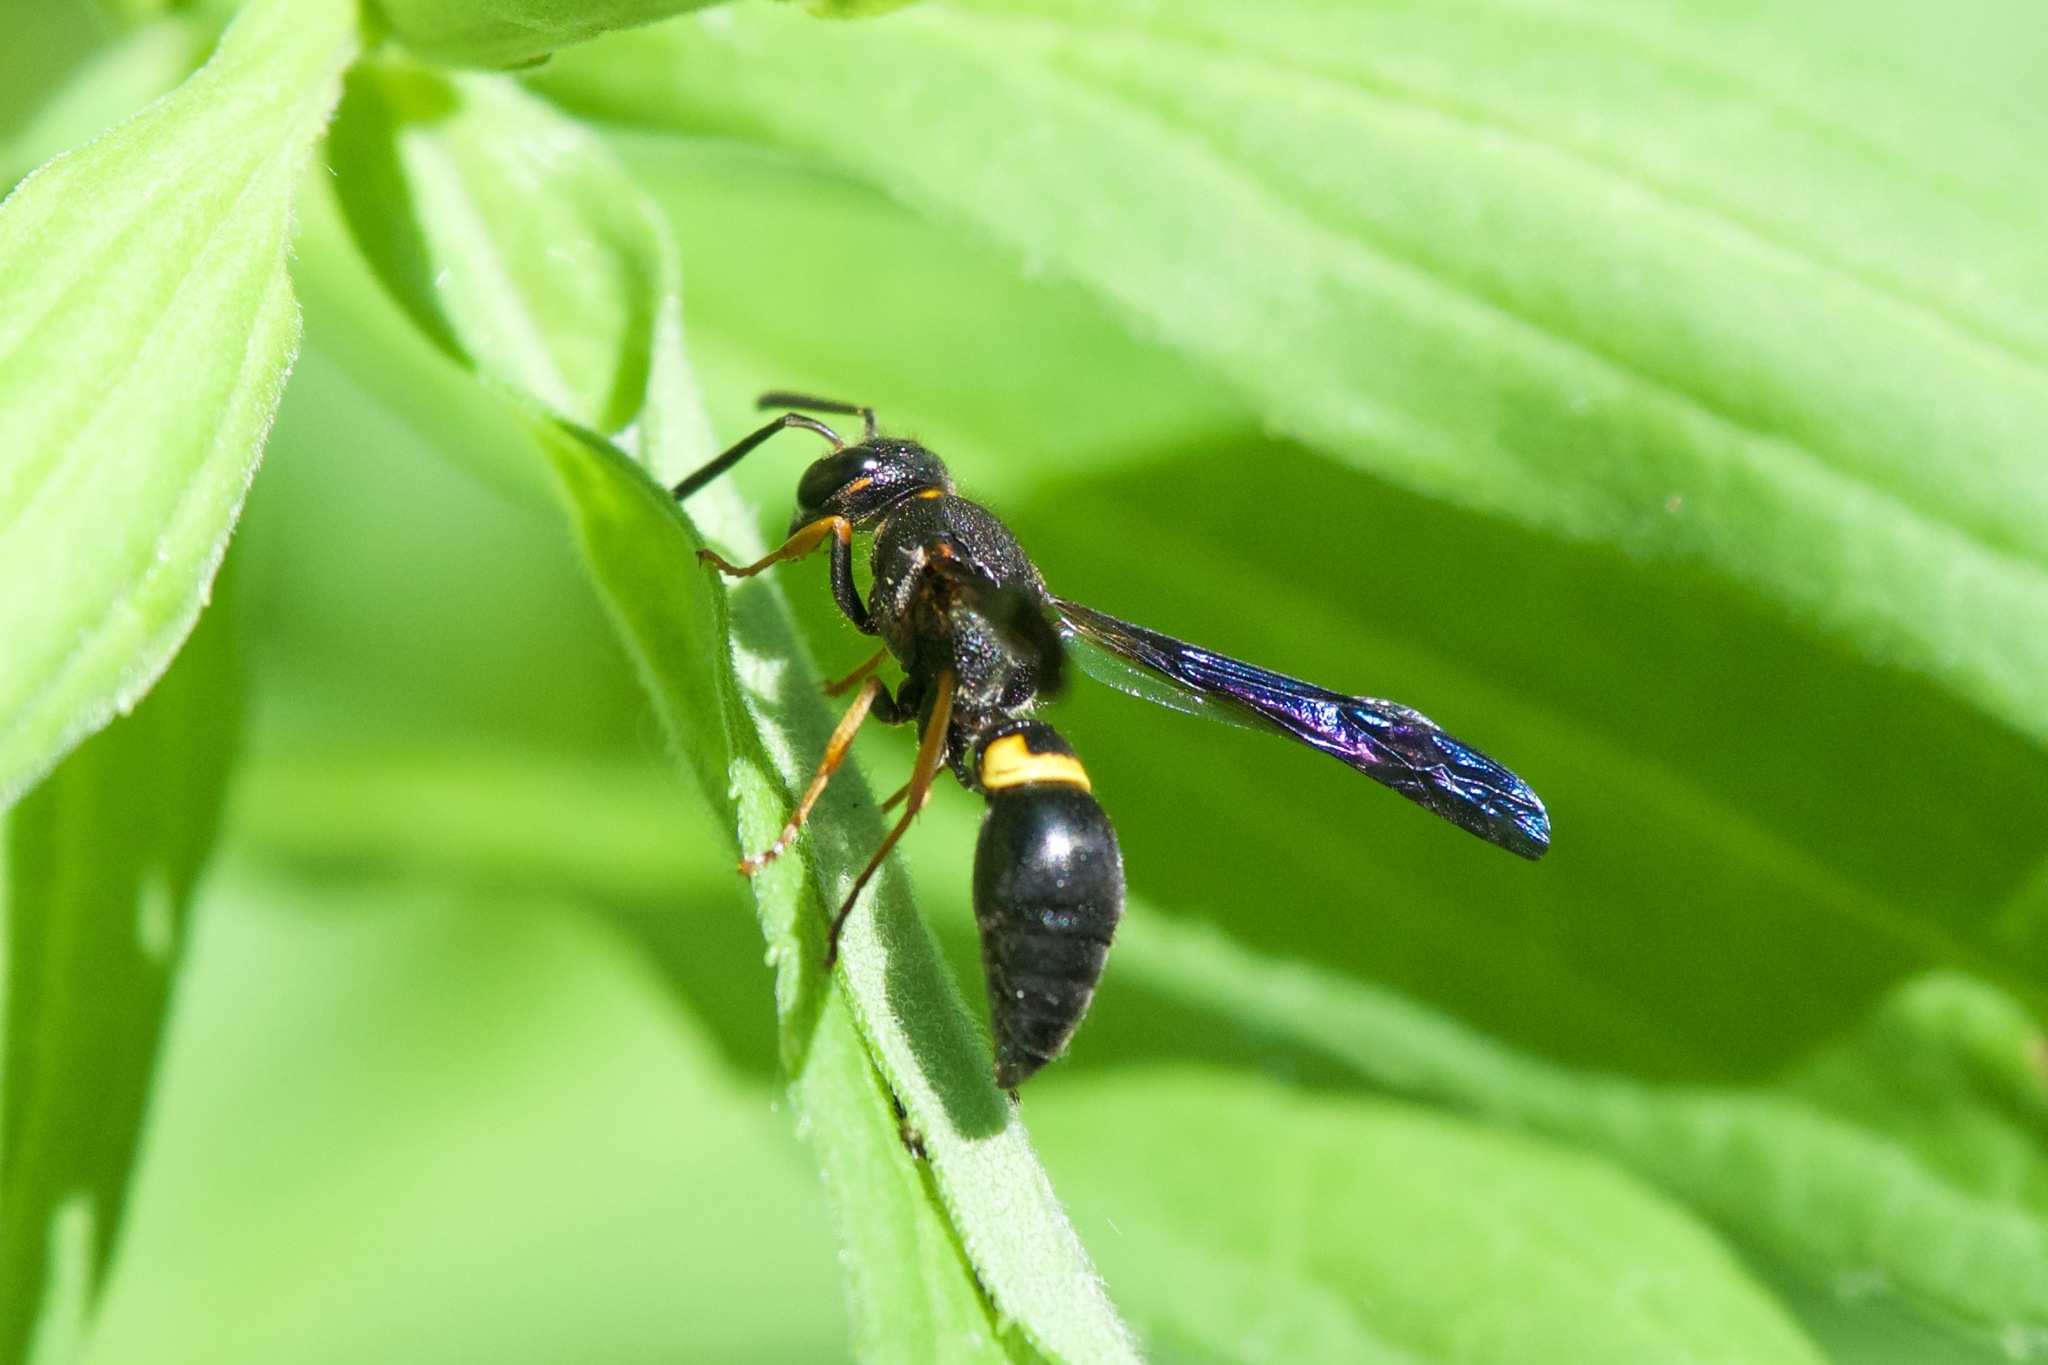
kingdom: Animalia
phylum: Arthropoda
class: Insecta
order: Hymenoptera
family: Vespidae
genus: Ancistrocerus
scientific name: Ancistrocerus unifasciatus
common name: One-banded mason wasp
